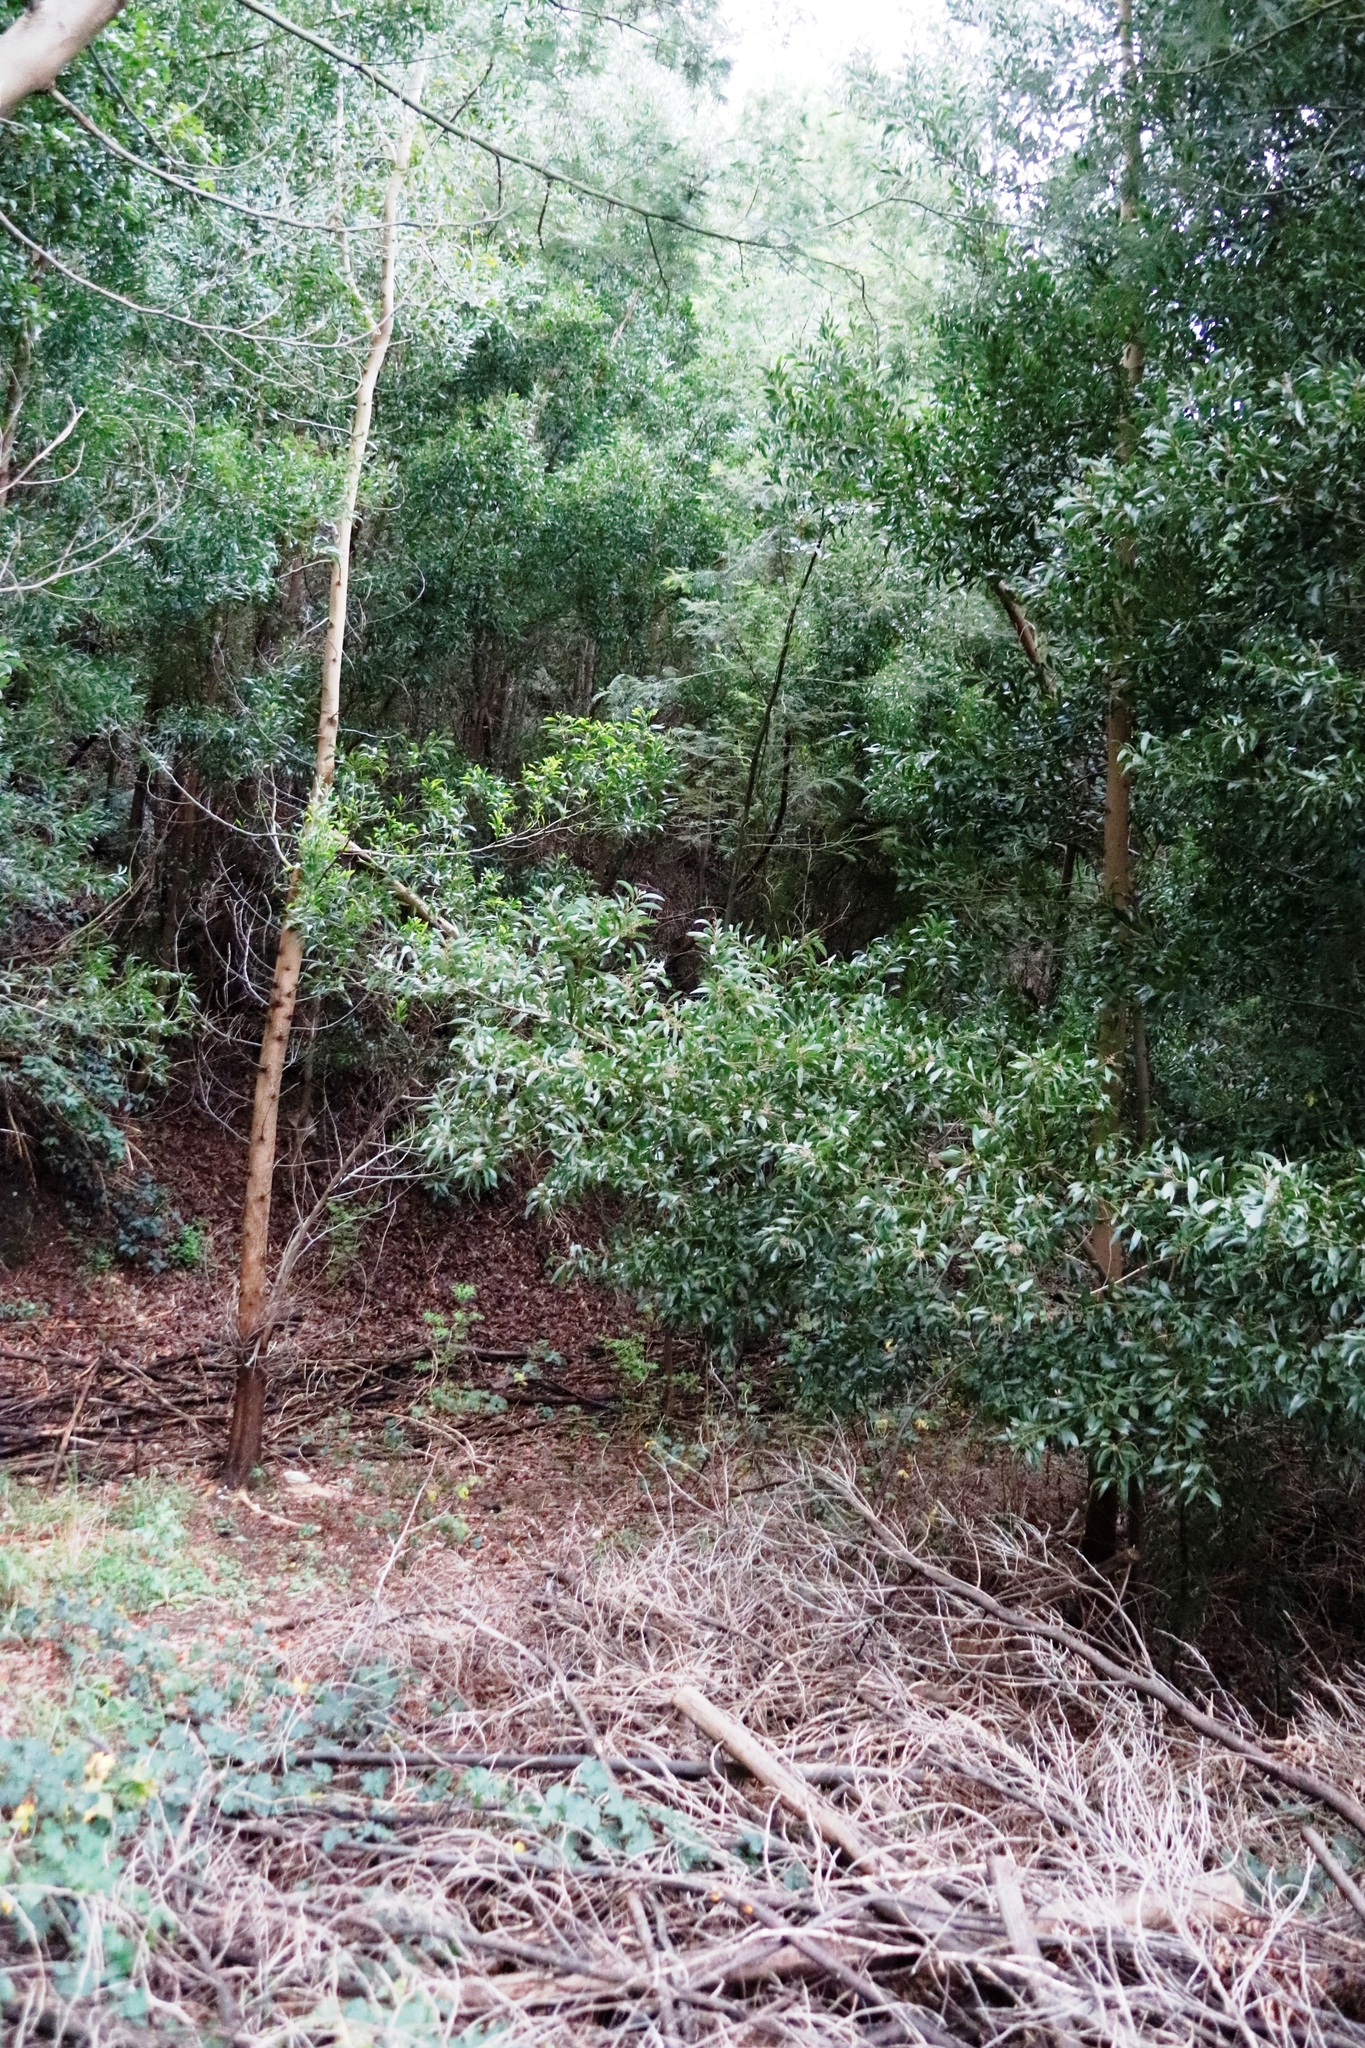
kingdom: Plantae
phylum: Tracheophyta
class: Magnoliopsida
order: Fabales
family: Fabaceae
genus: Acacia
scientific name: Acacia melanoxylon
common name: Blackwood
